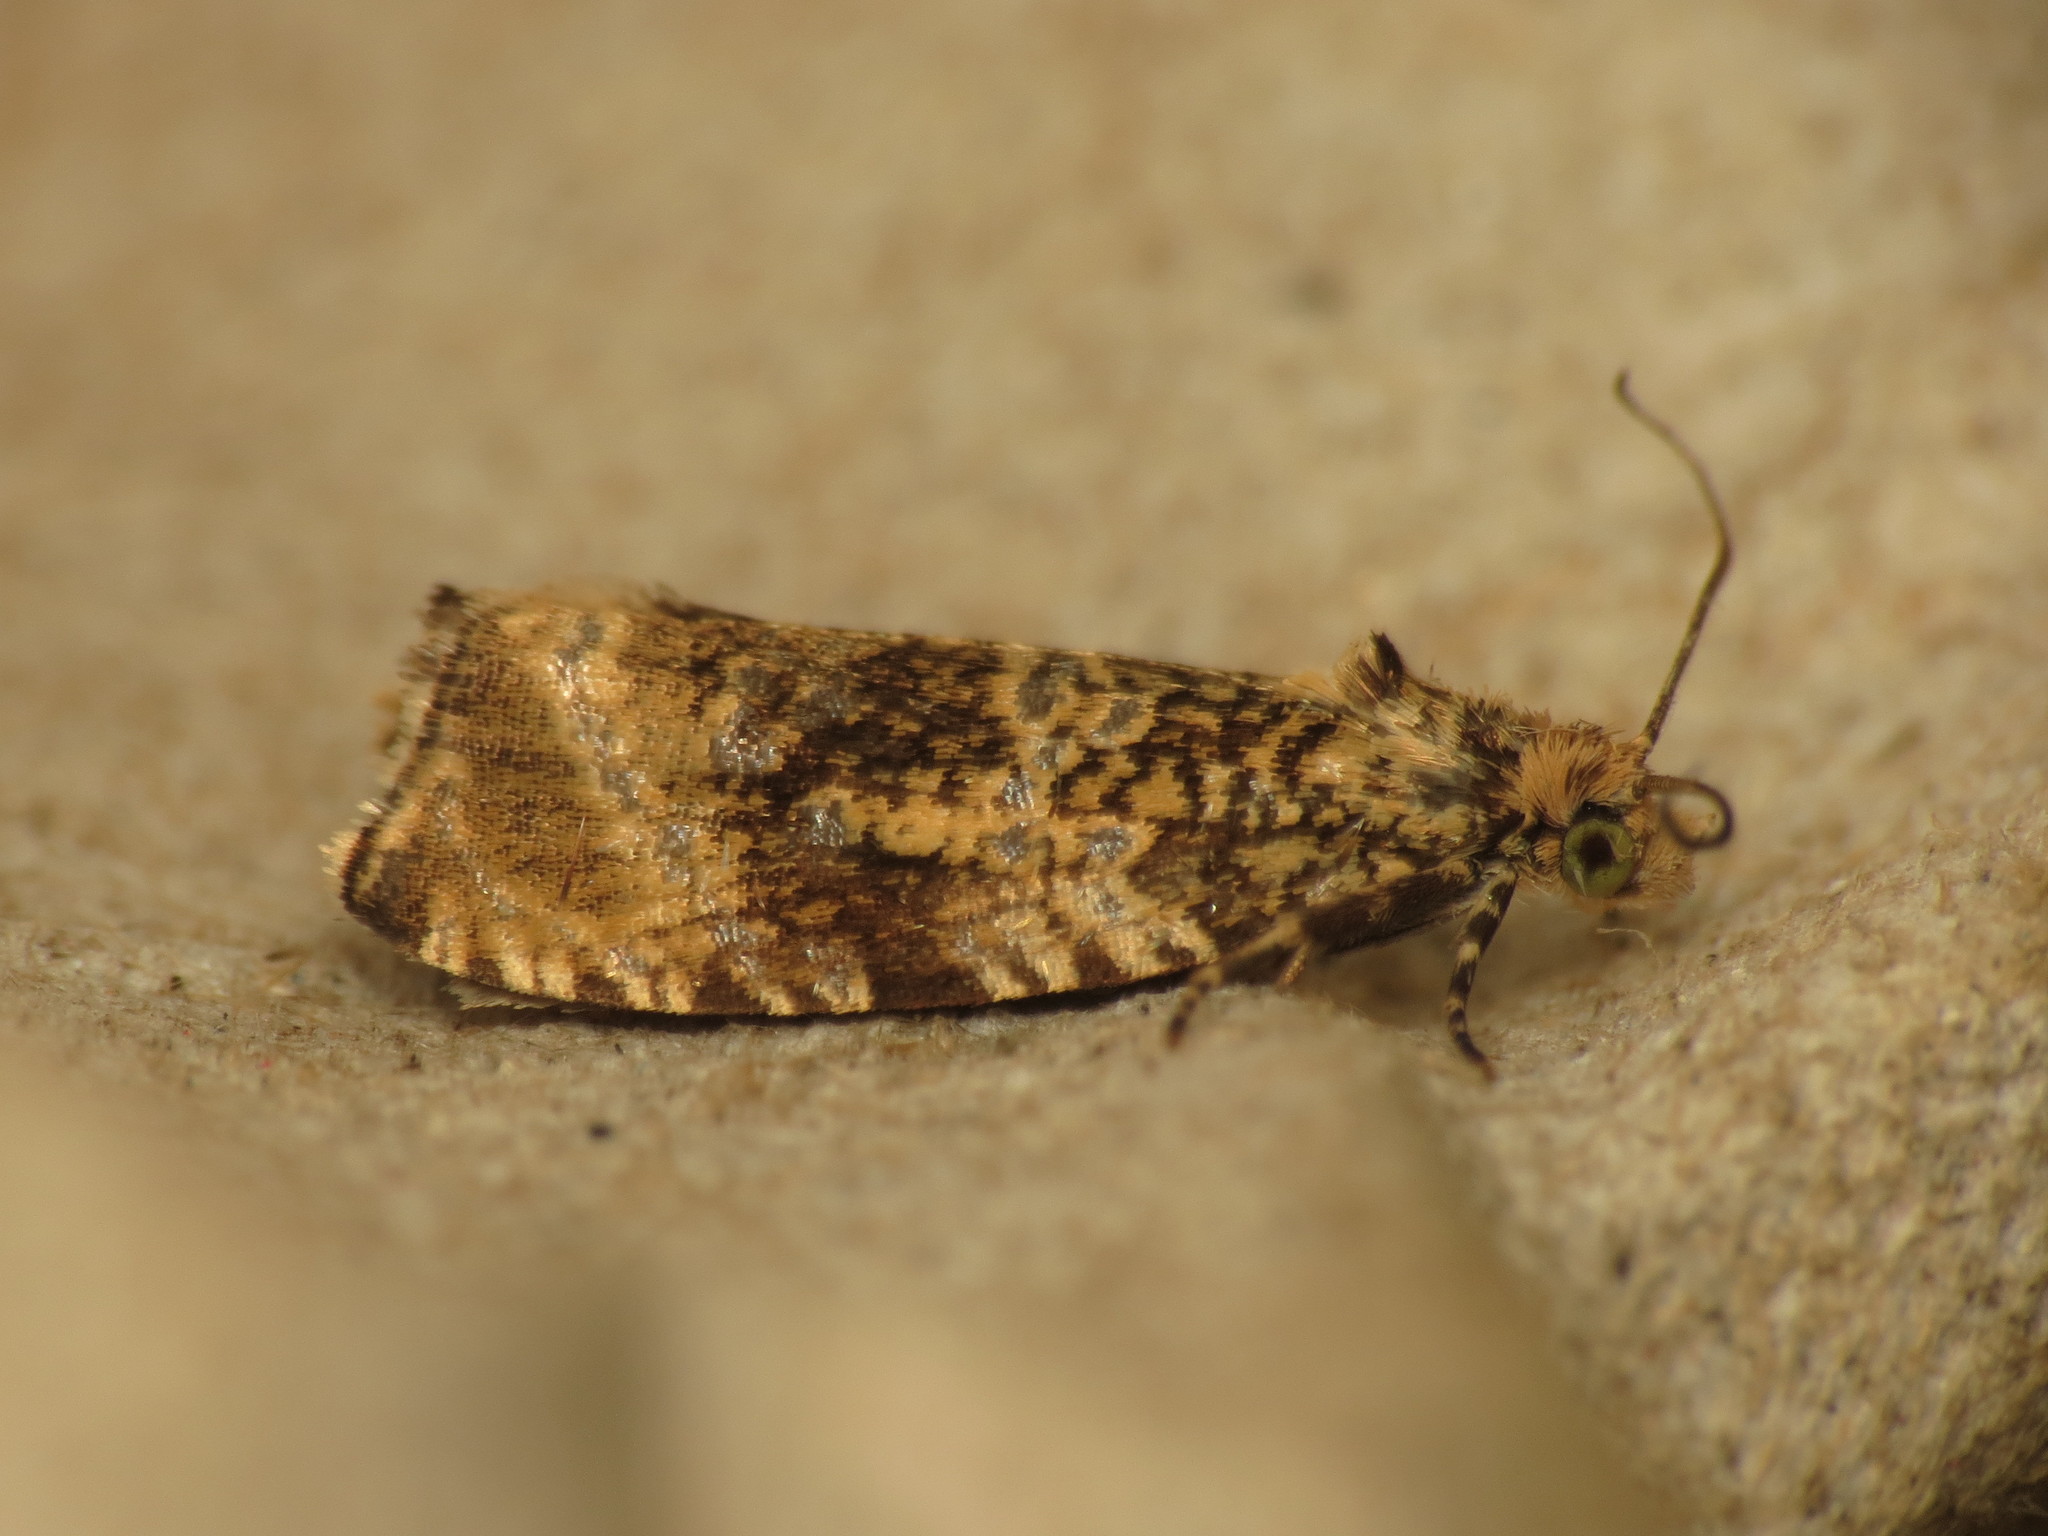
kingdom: Animalia
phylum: Arthropoda
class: Insecta
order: Lepidoptera
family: Tortricidae
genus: Syricoris
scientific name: Syricoris lacunana
